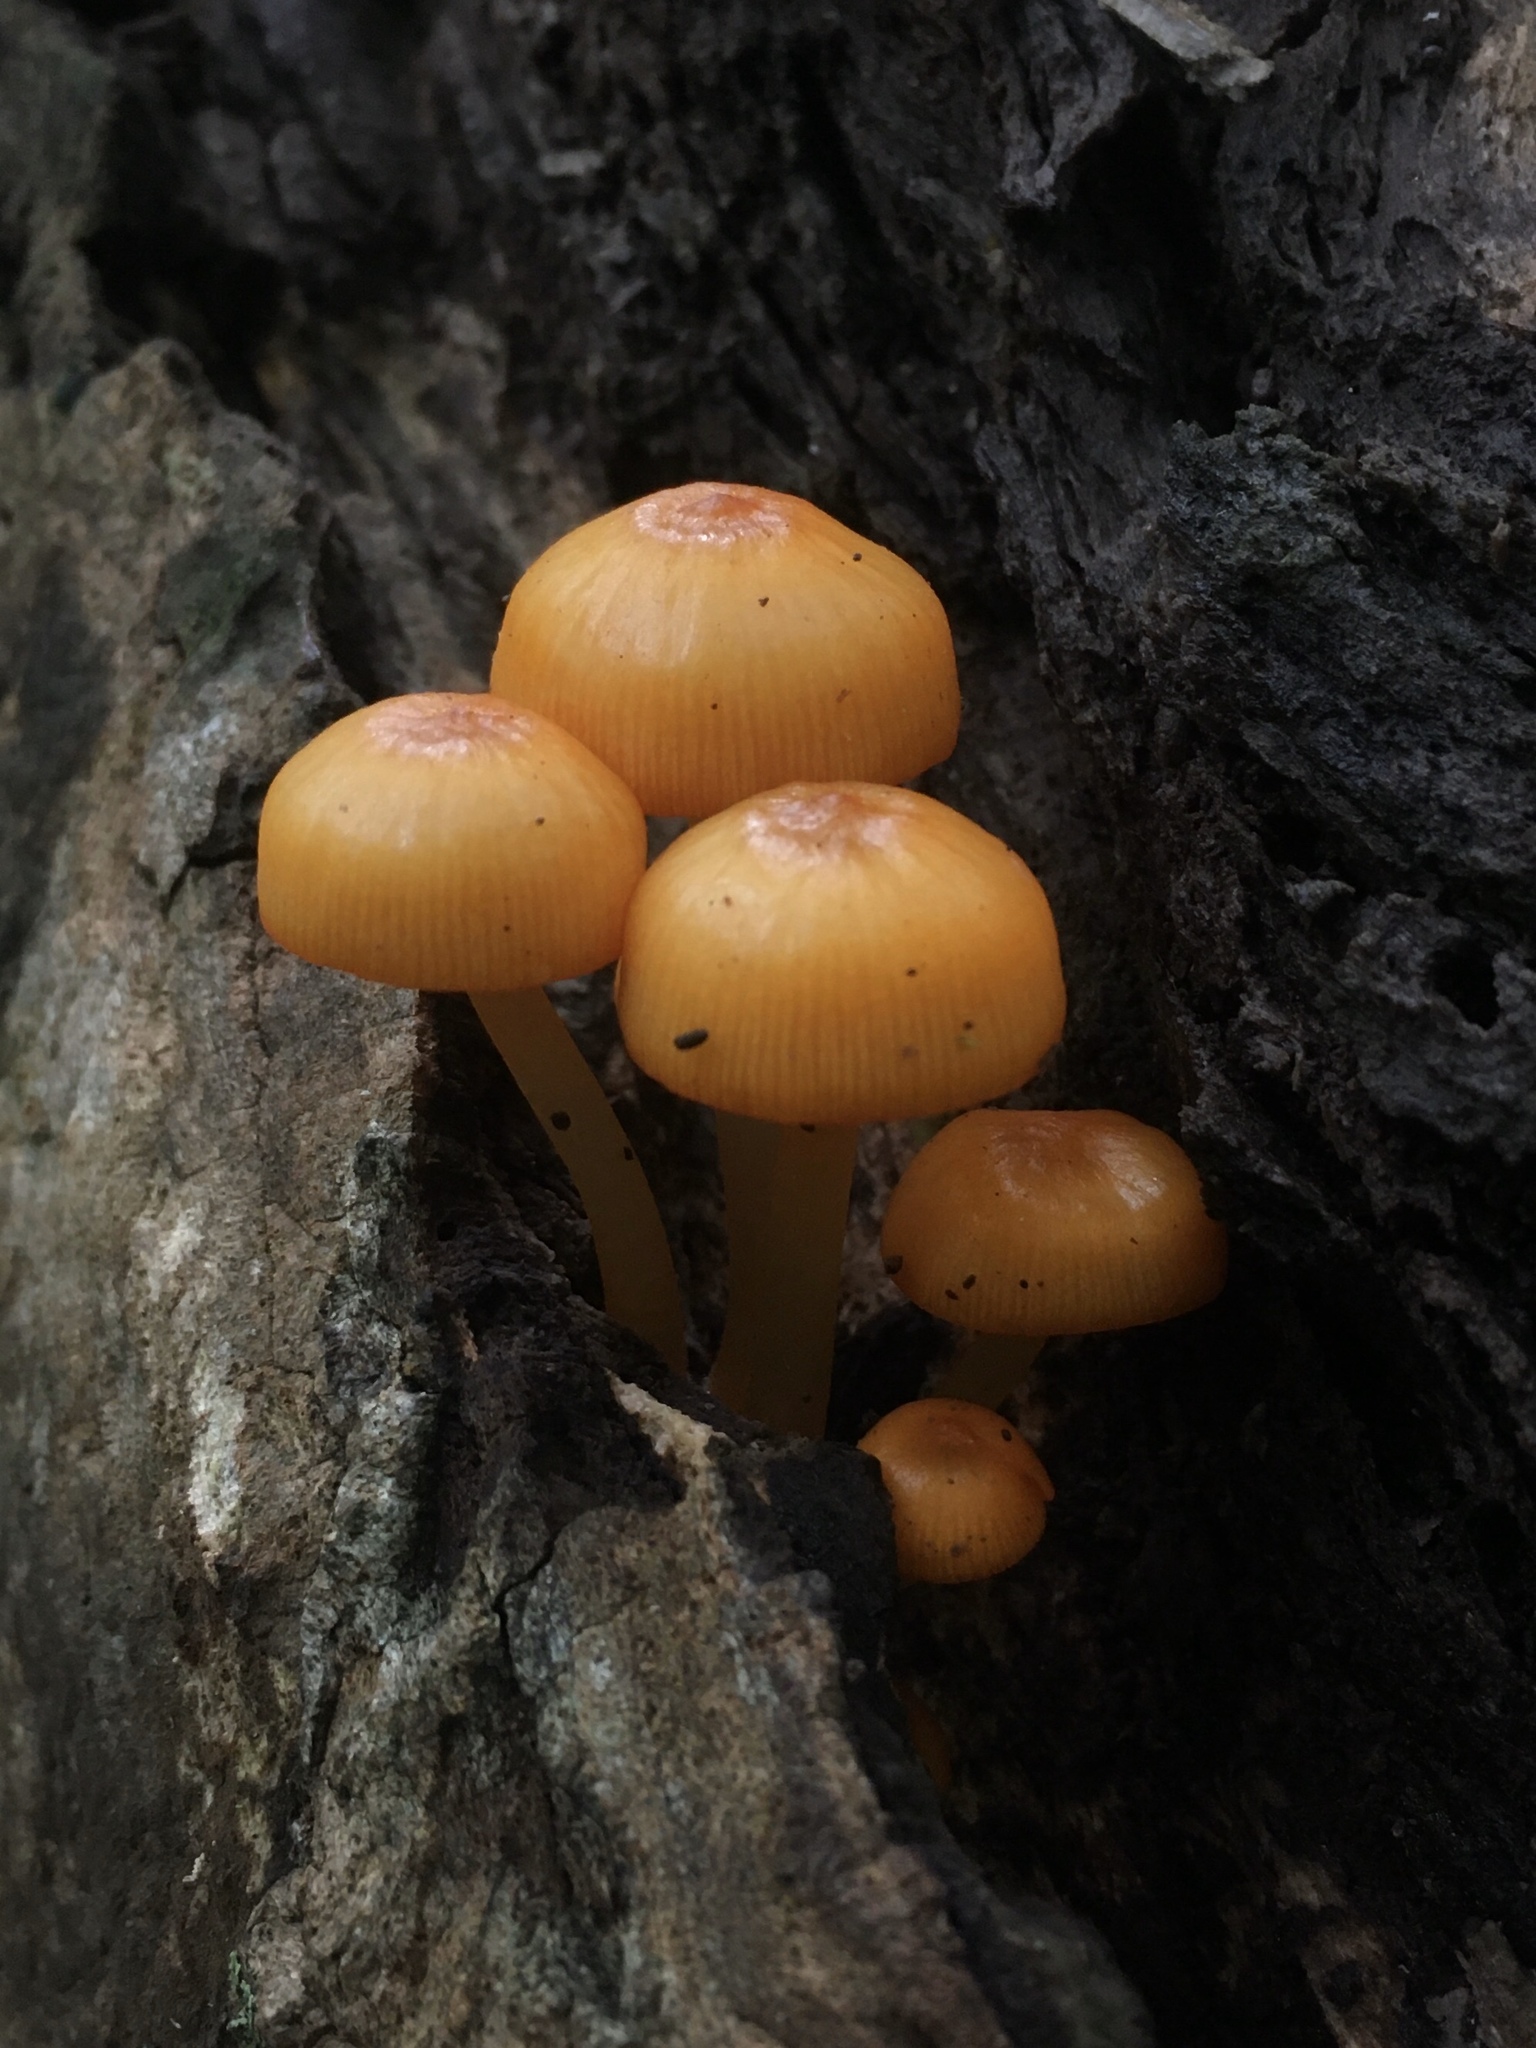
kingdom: Fungi
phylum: Basidiomycota
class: Agaricomycetes
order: Agaricales
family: Mycenaceae
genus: Mycena
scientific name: Mycena leaiana
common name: Orange mycena
